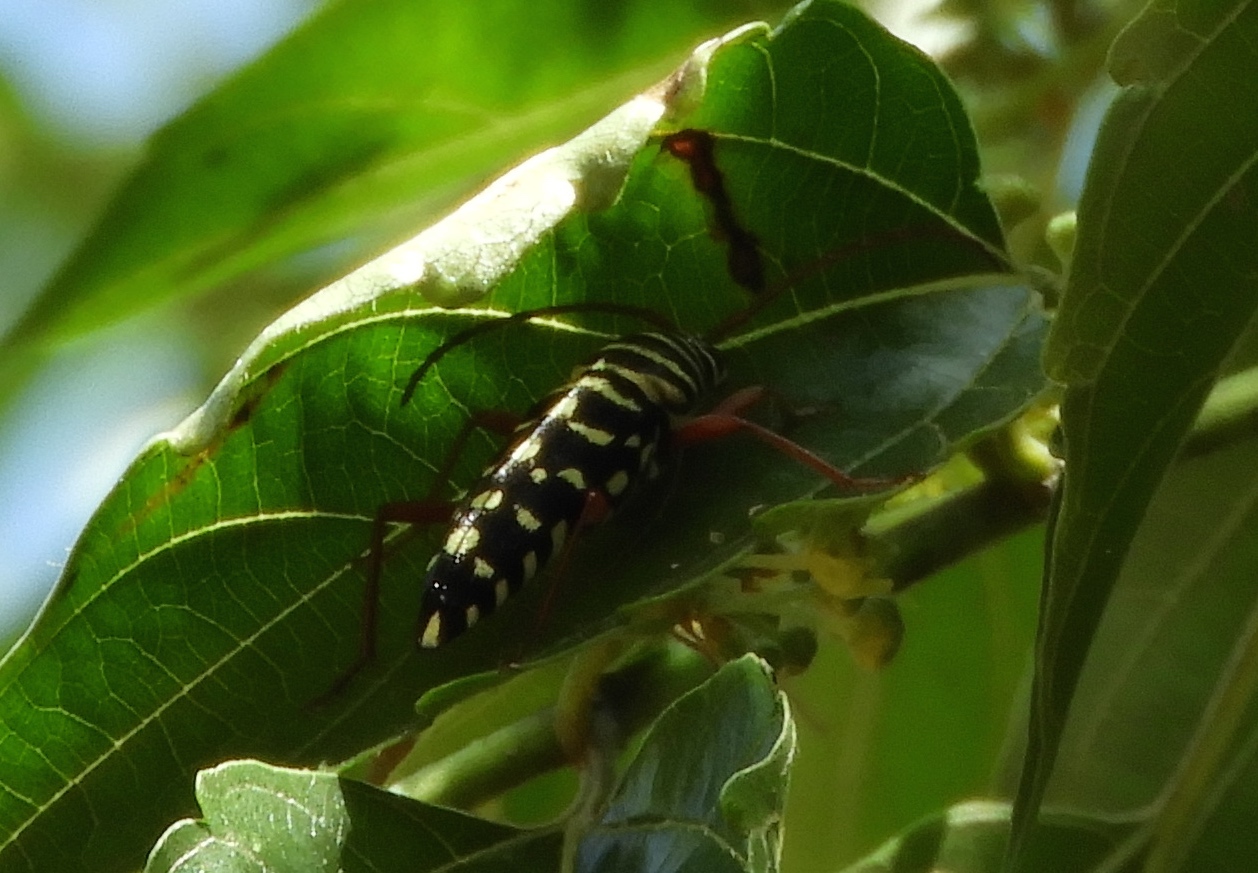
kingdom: Animalia
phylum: Arthropoda
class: Insecta
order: Coleoptera
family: Cerambycidae
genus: Placosternus
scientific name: Placosternus crinicornis
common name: Kiawe round headed borer
